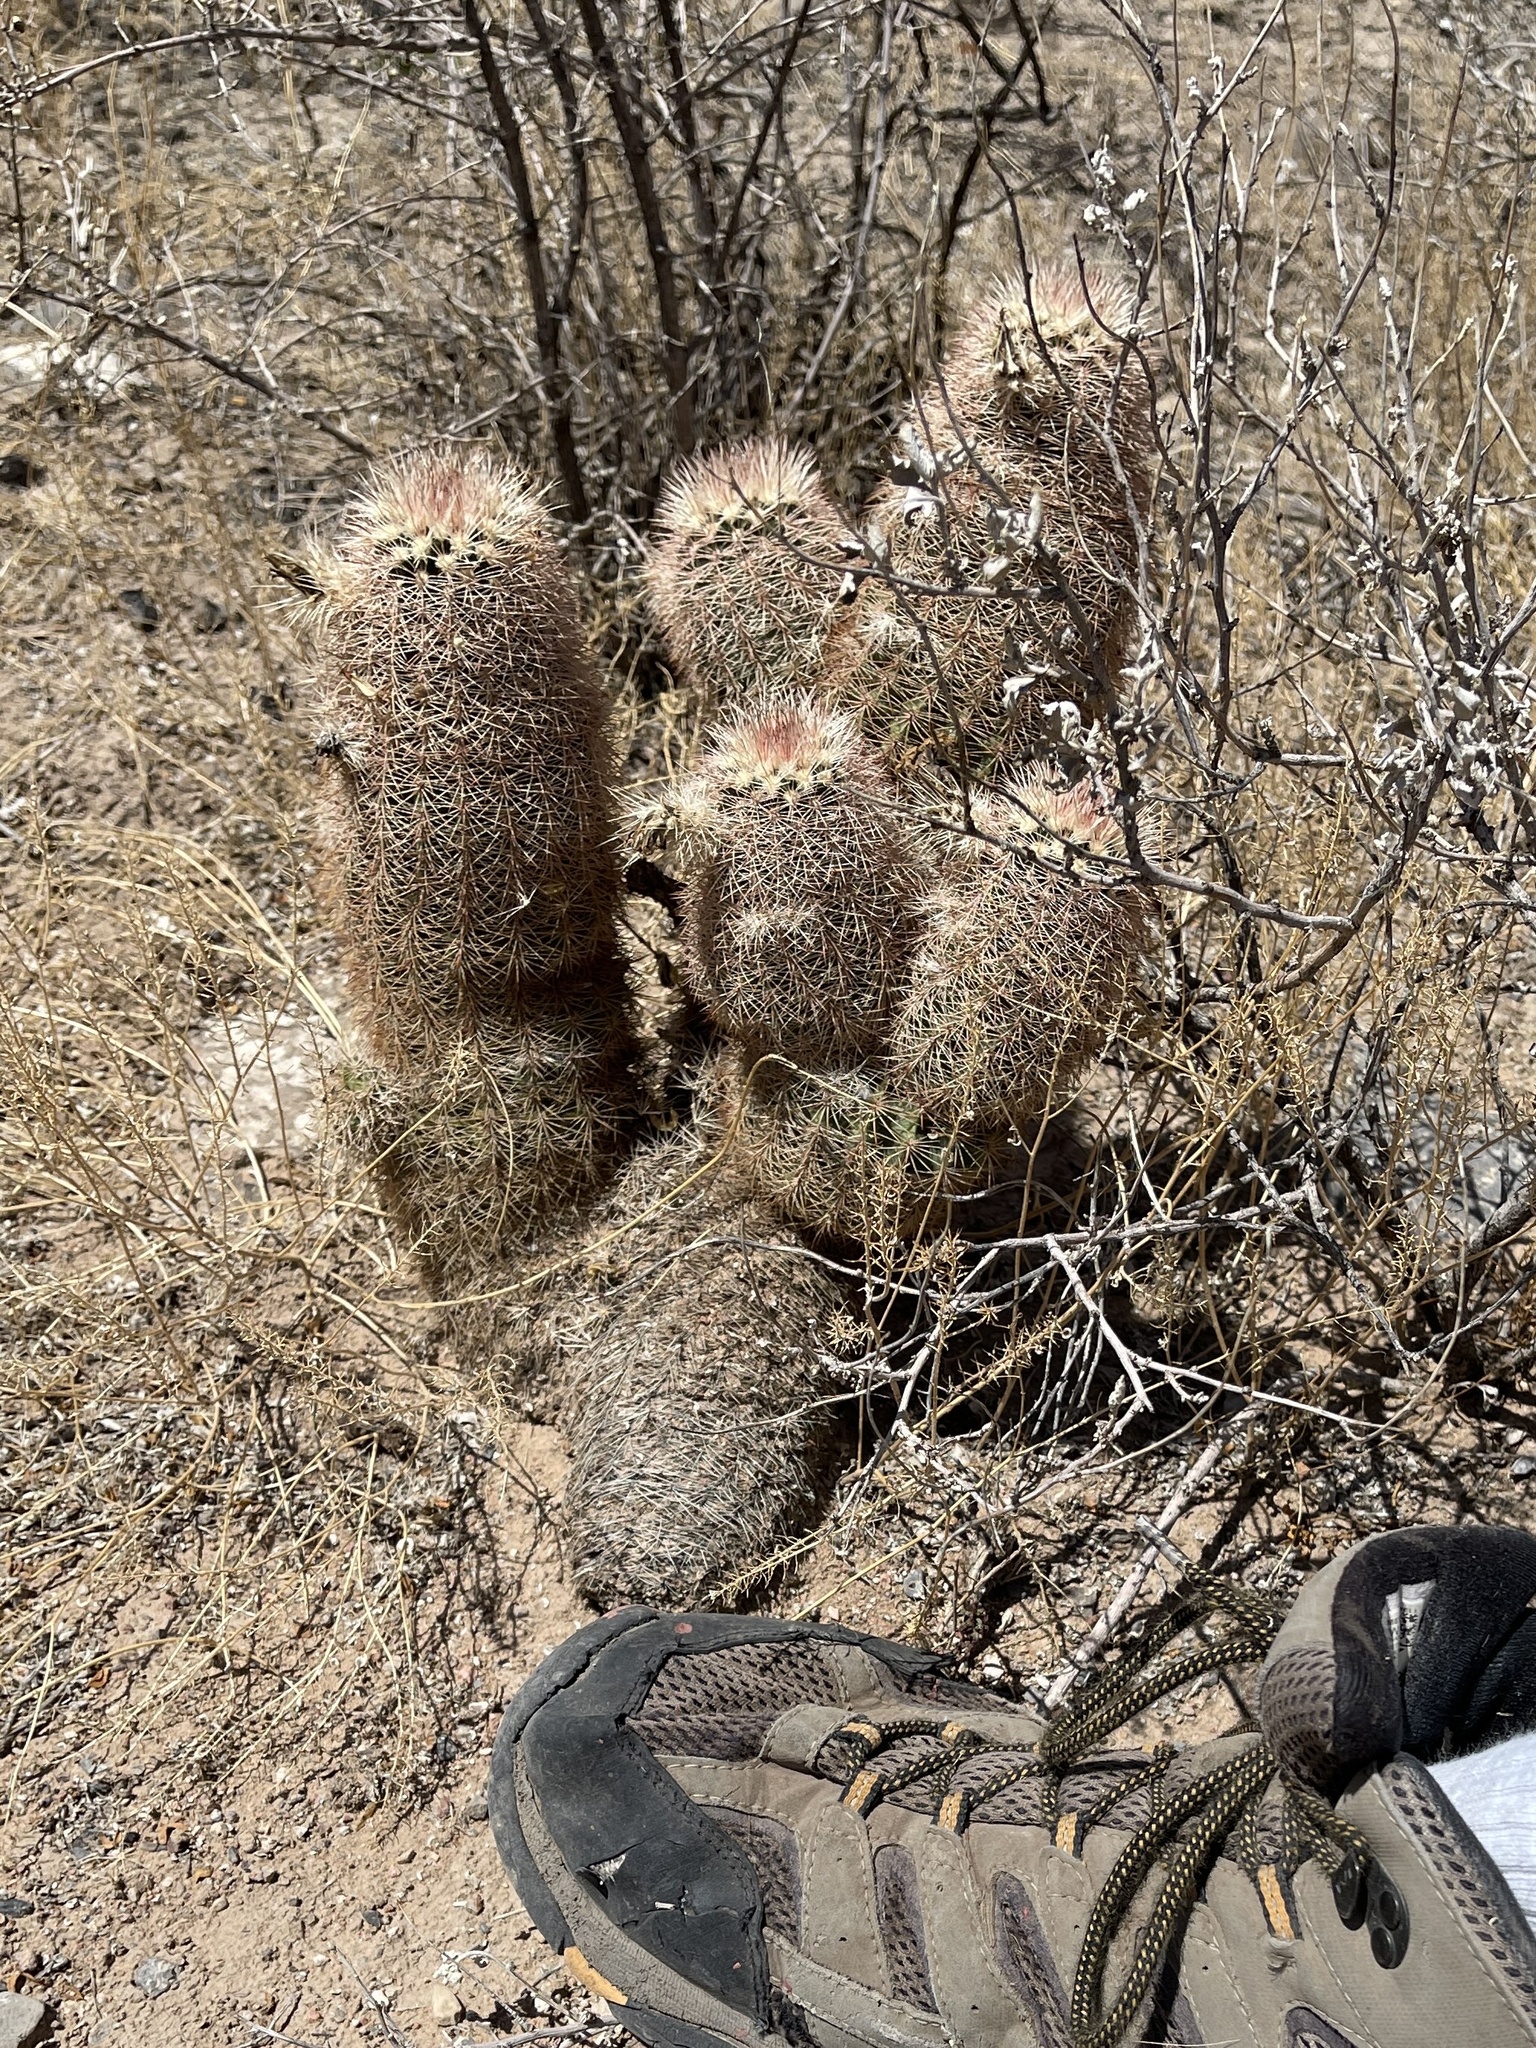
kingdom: Plantae
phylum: Tracheophyta
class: Magnoliopsida
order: Caryophyllales
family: Cactaceae
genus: Echinocereus
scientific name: Echinocereus dasyacanthus
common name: Spiny hedgehog cactus
